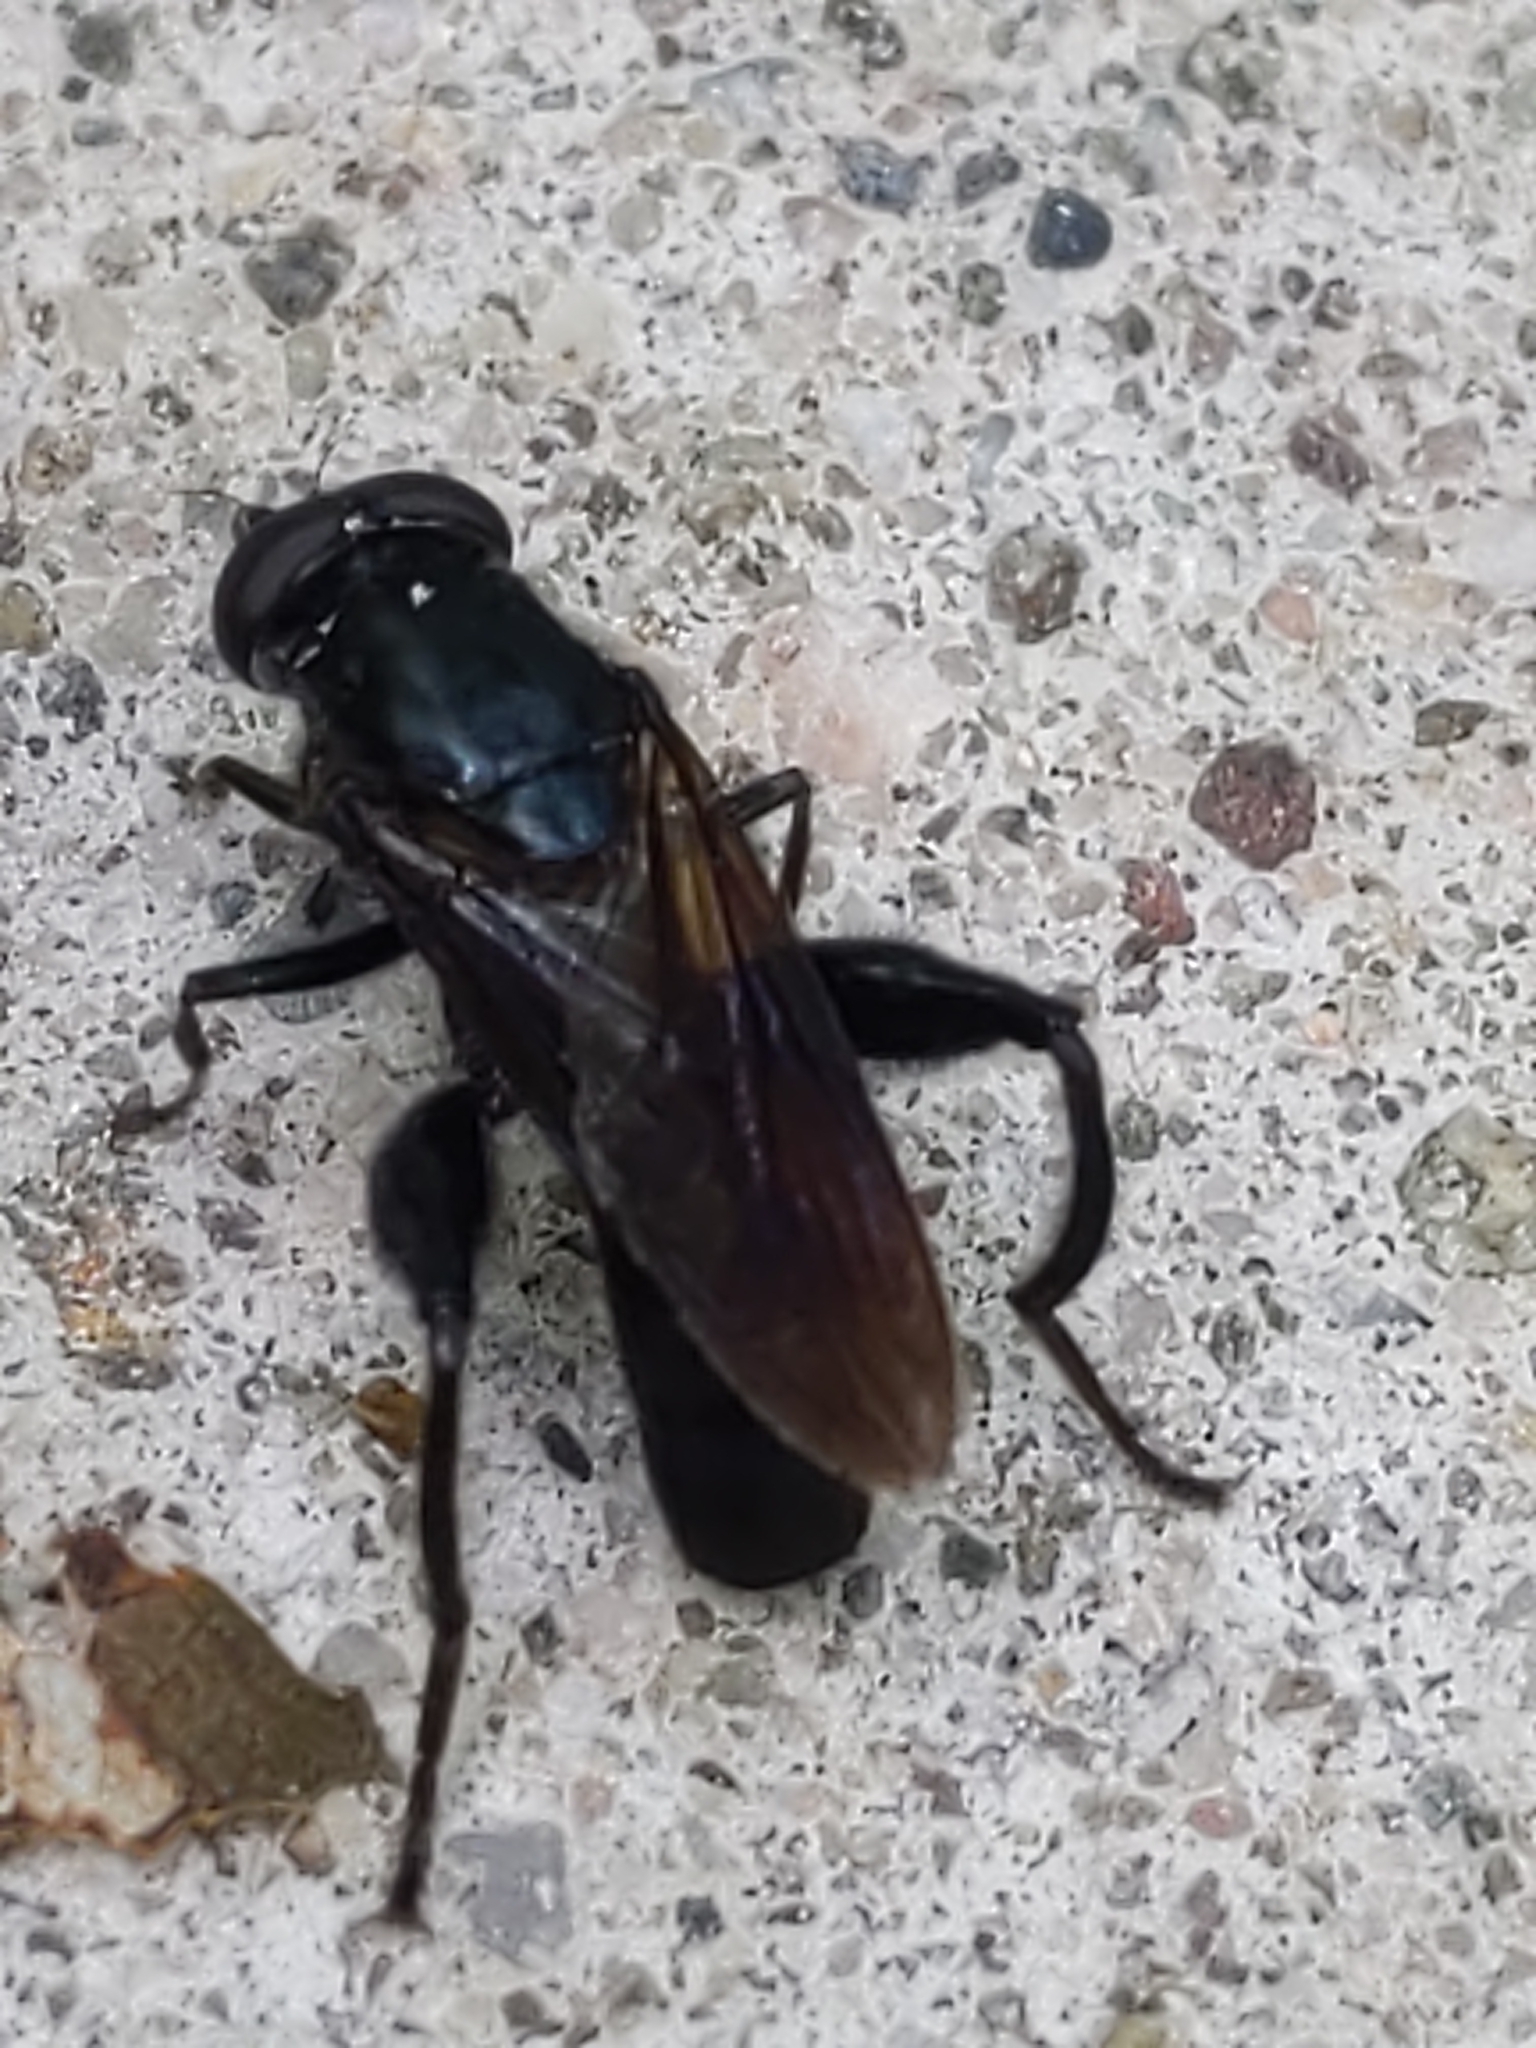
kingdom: Animalia
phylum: Arthropoda
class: Insecta
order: Diptera
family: Syrphidae
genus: Chalcosyrphus
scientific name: Chalcosyrphus chalybeus
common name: Violet leafwalker
